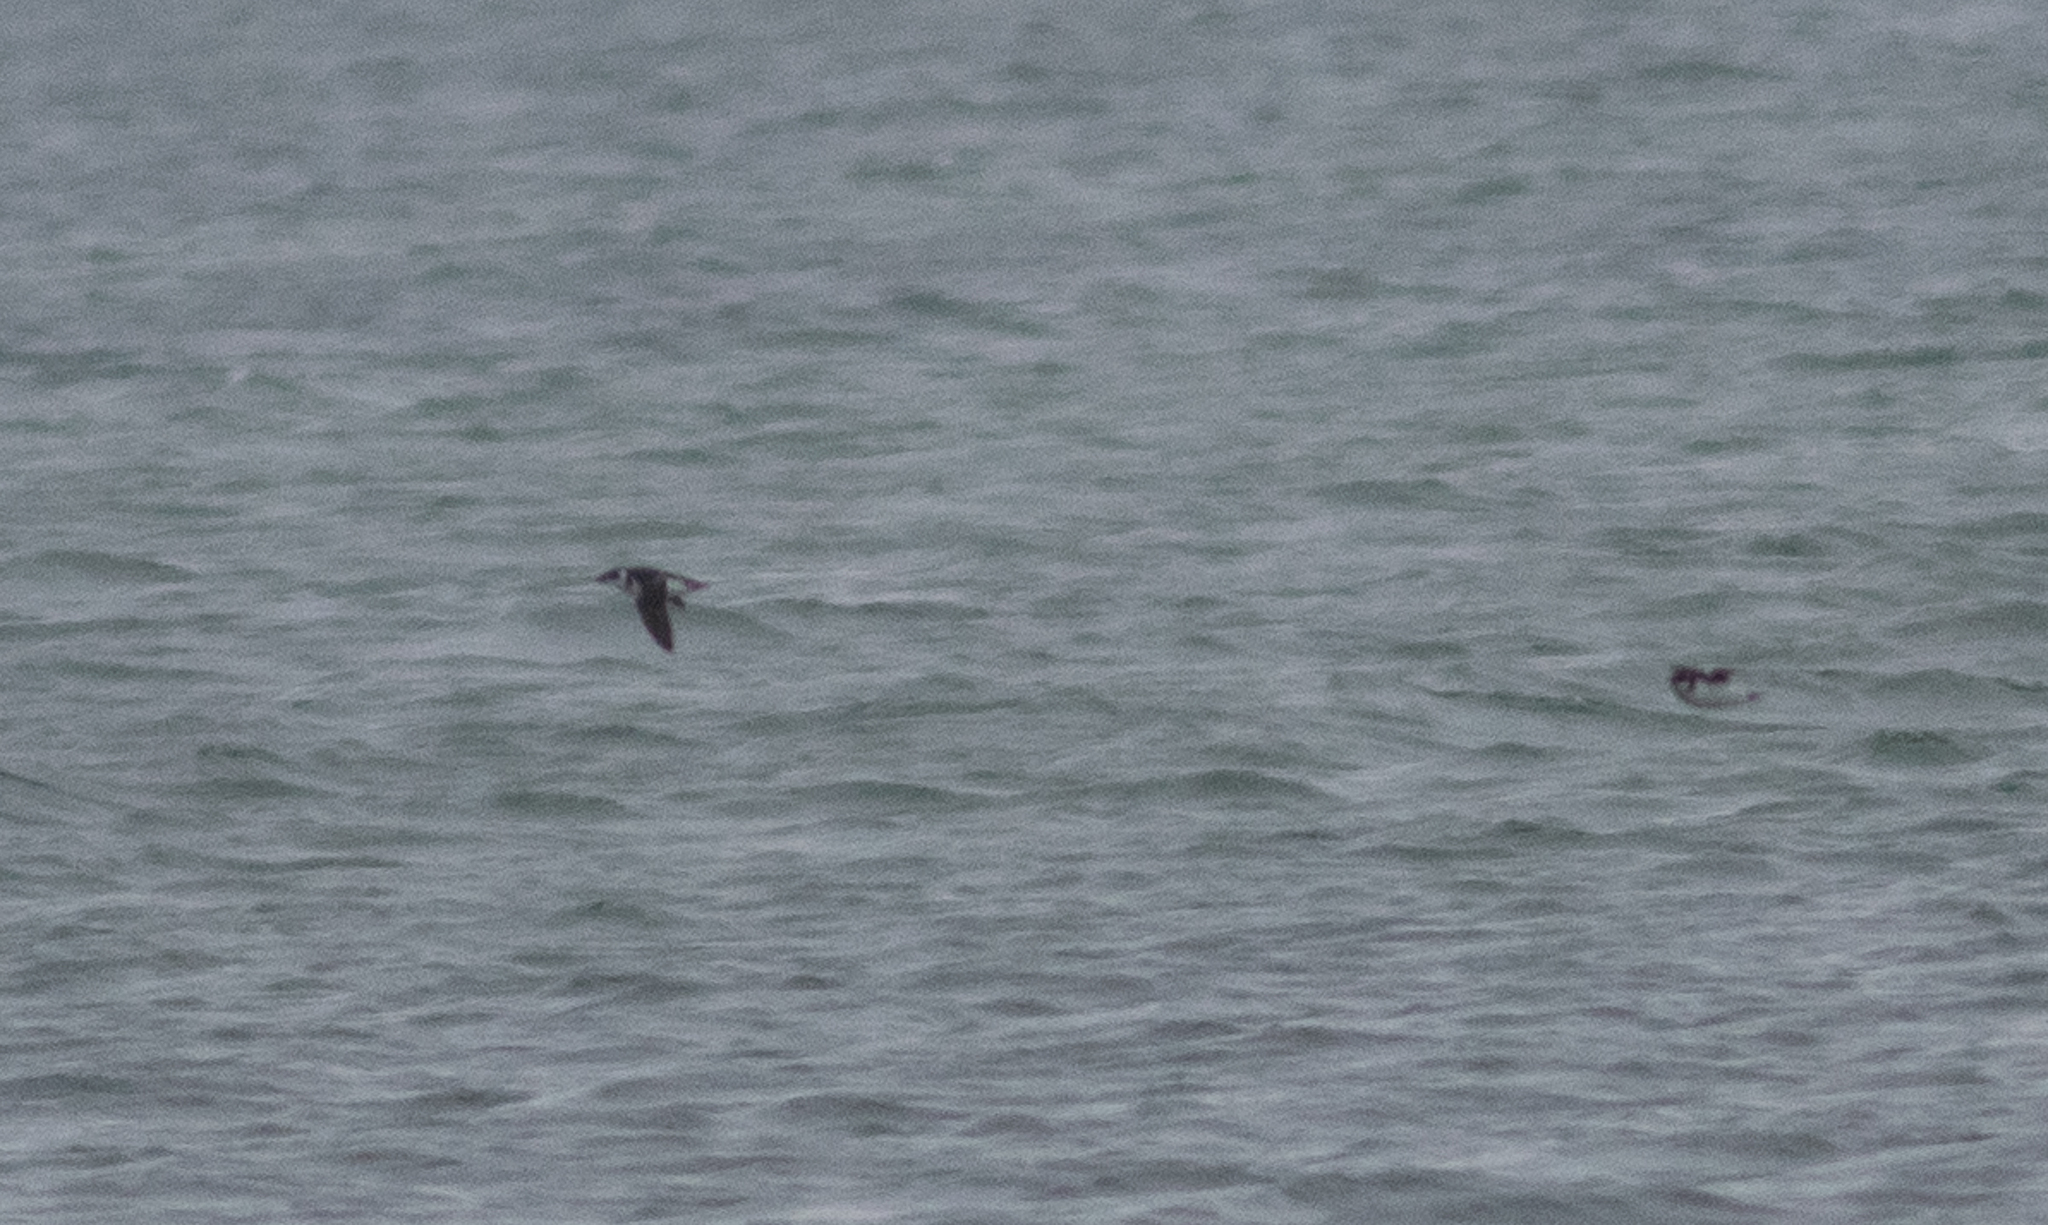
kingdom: Animalia
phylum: Chordata
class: Aves
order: Charadriiformes
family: Alcidae
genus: Alle
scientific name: Alle alle
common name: Little auk
